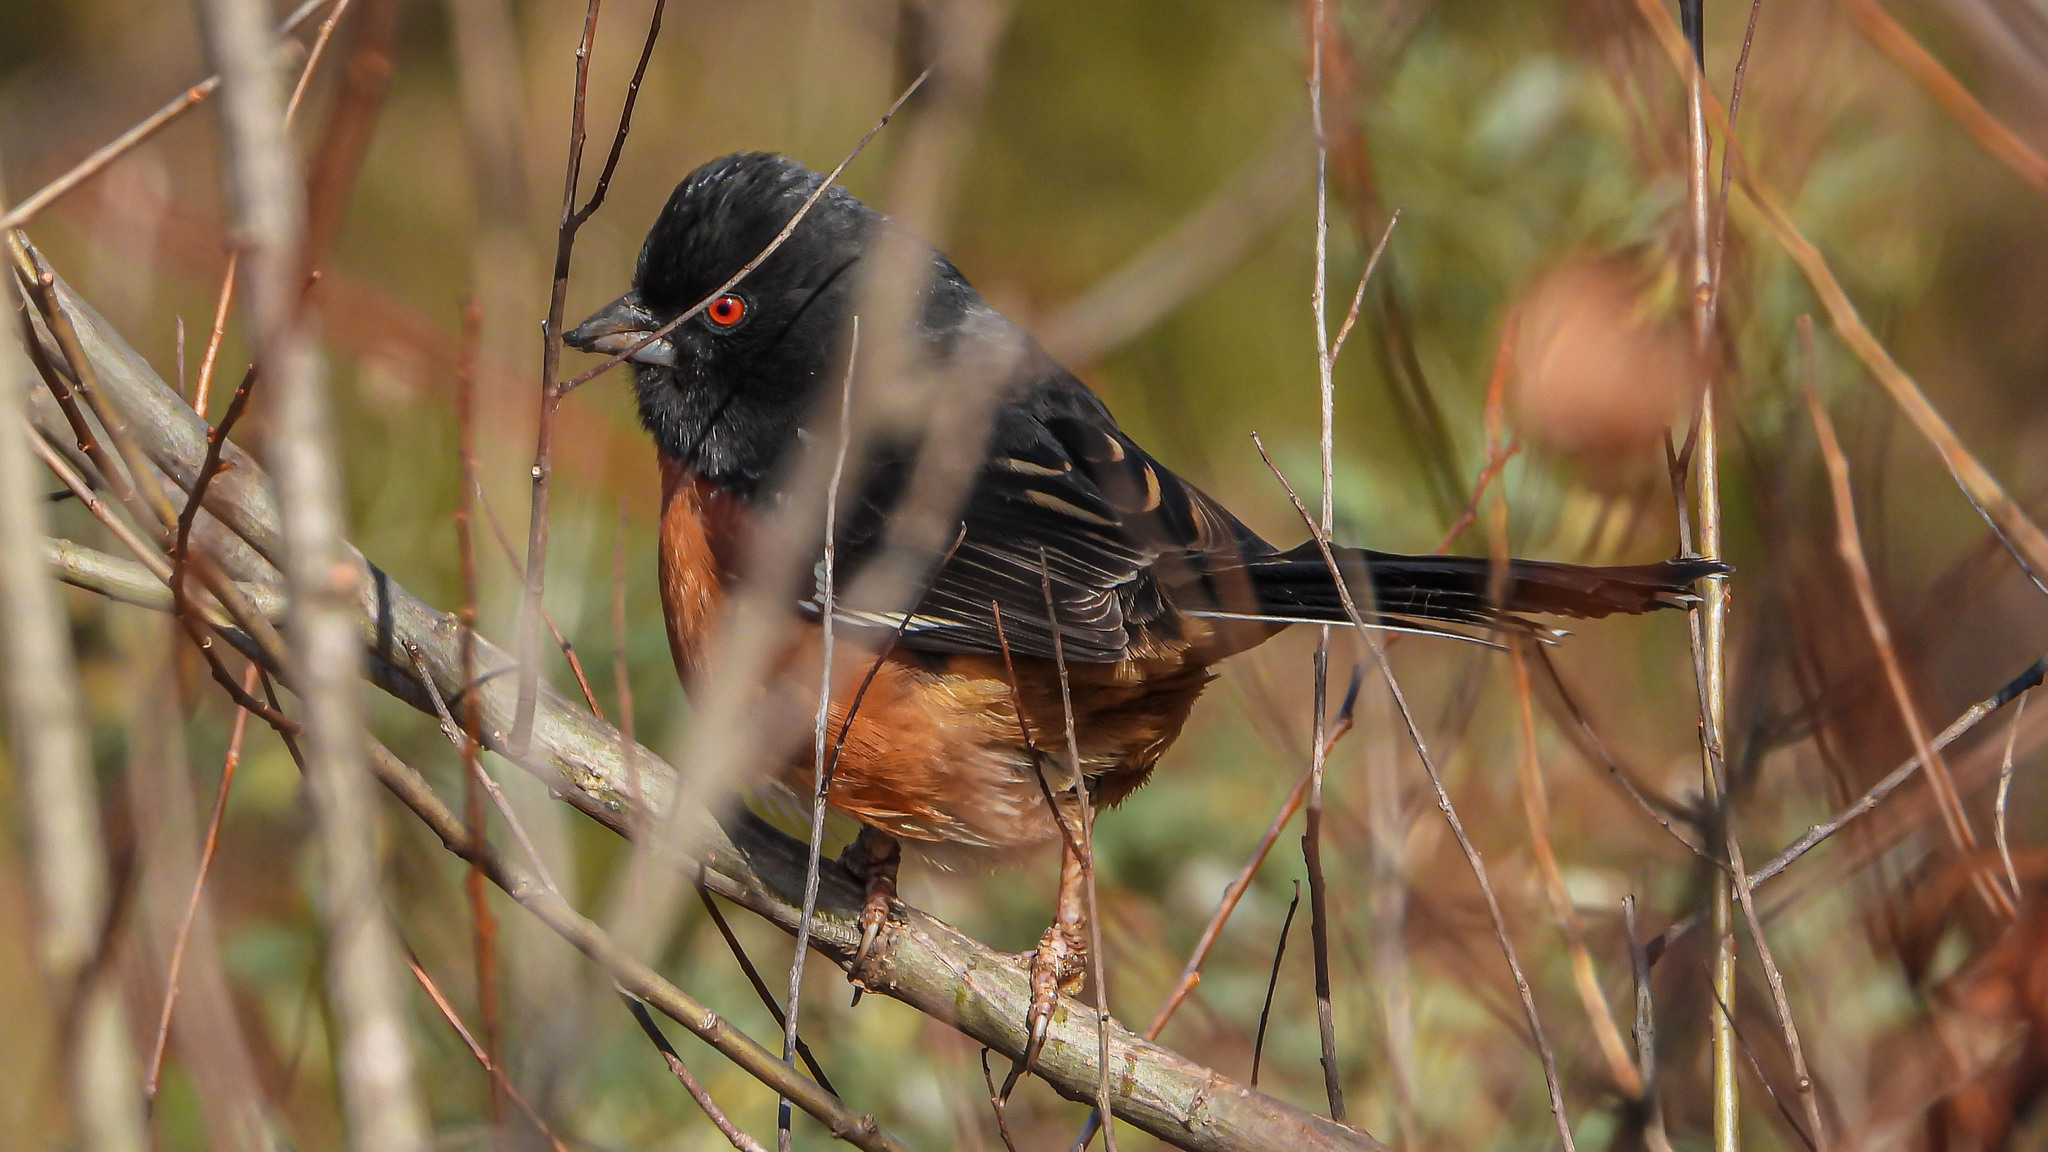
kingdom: Animalia
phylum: Chordata
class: Aves
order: Passeriformes
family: Passerellidae
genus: Pipilo
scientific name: Pipilo erythrophthalmus
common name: Eastern towhee
